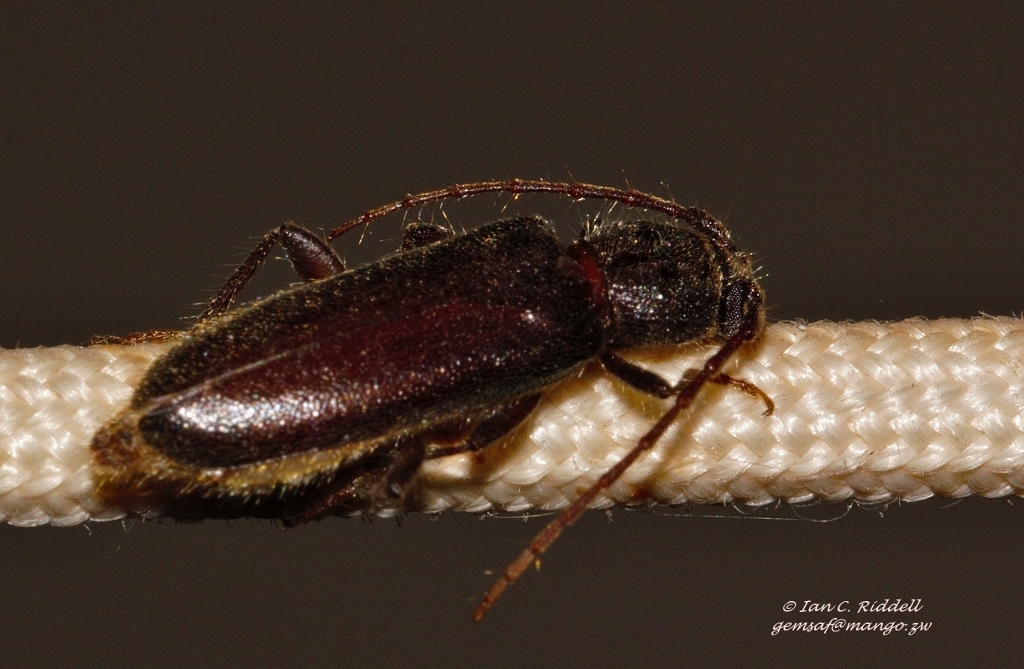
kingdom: Animalia
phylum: Arthropoda
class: Insecta
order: Coleoptera
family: Cerambycidae
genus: Zamium
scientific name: Zamium incultum
